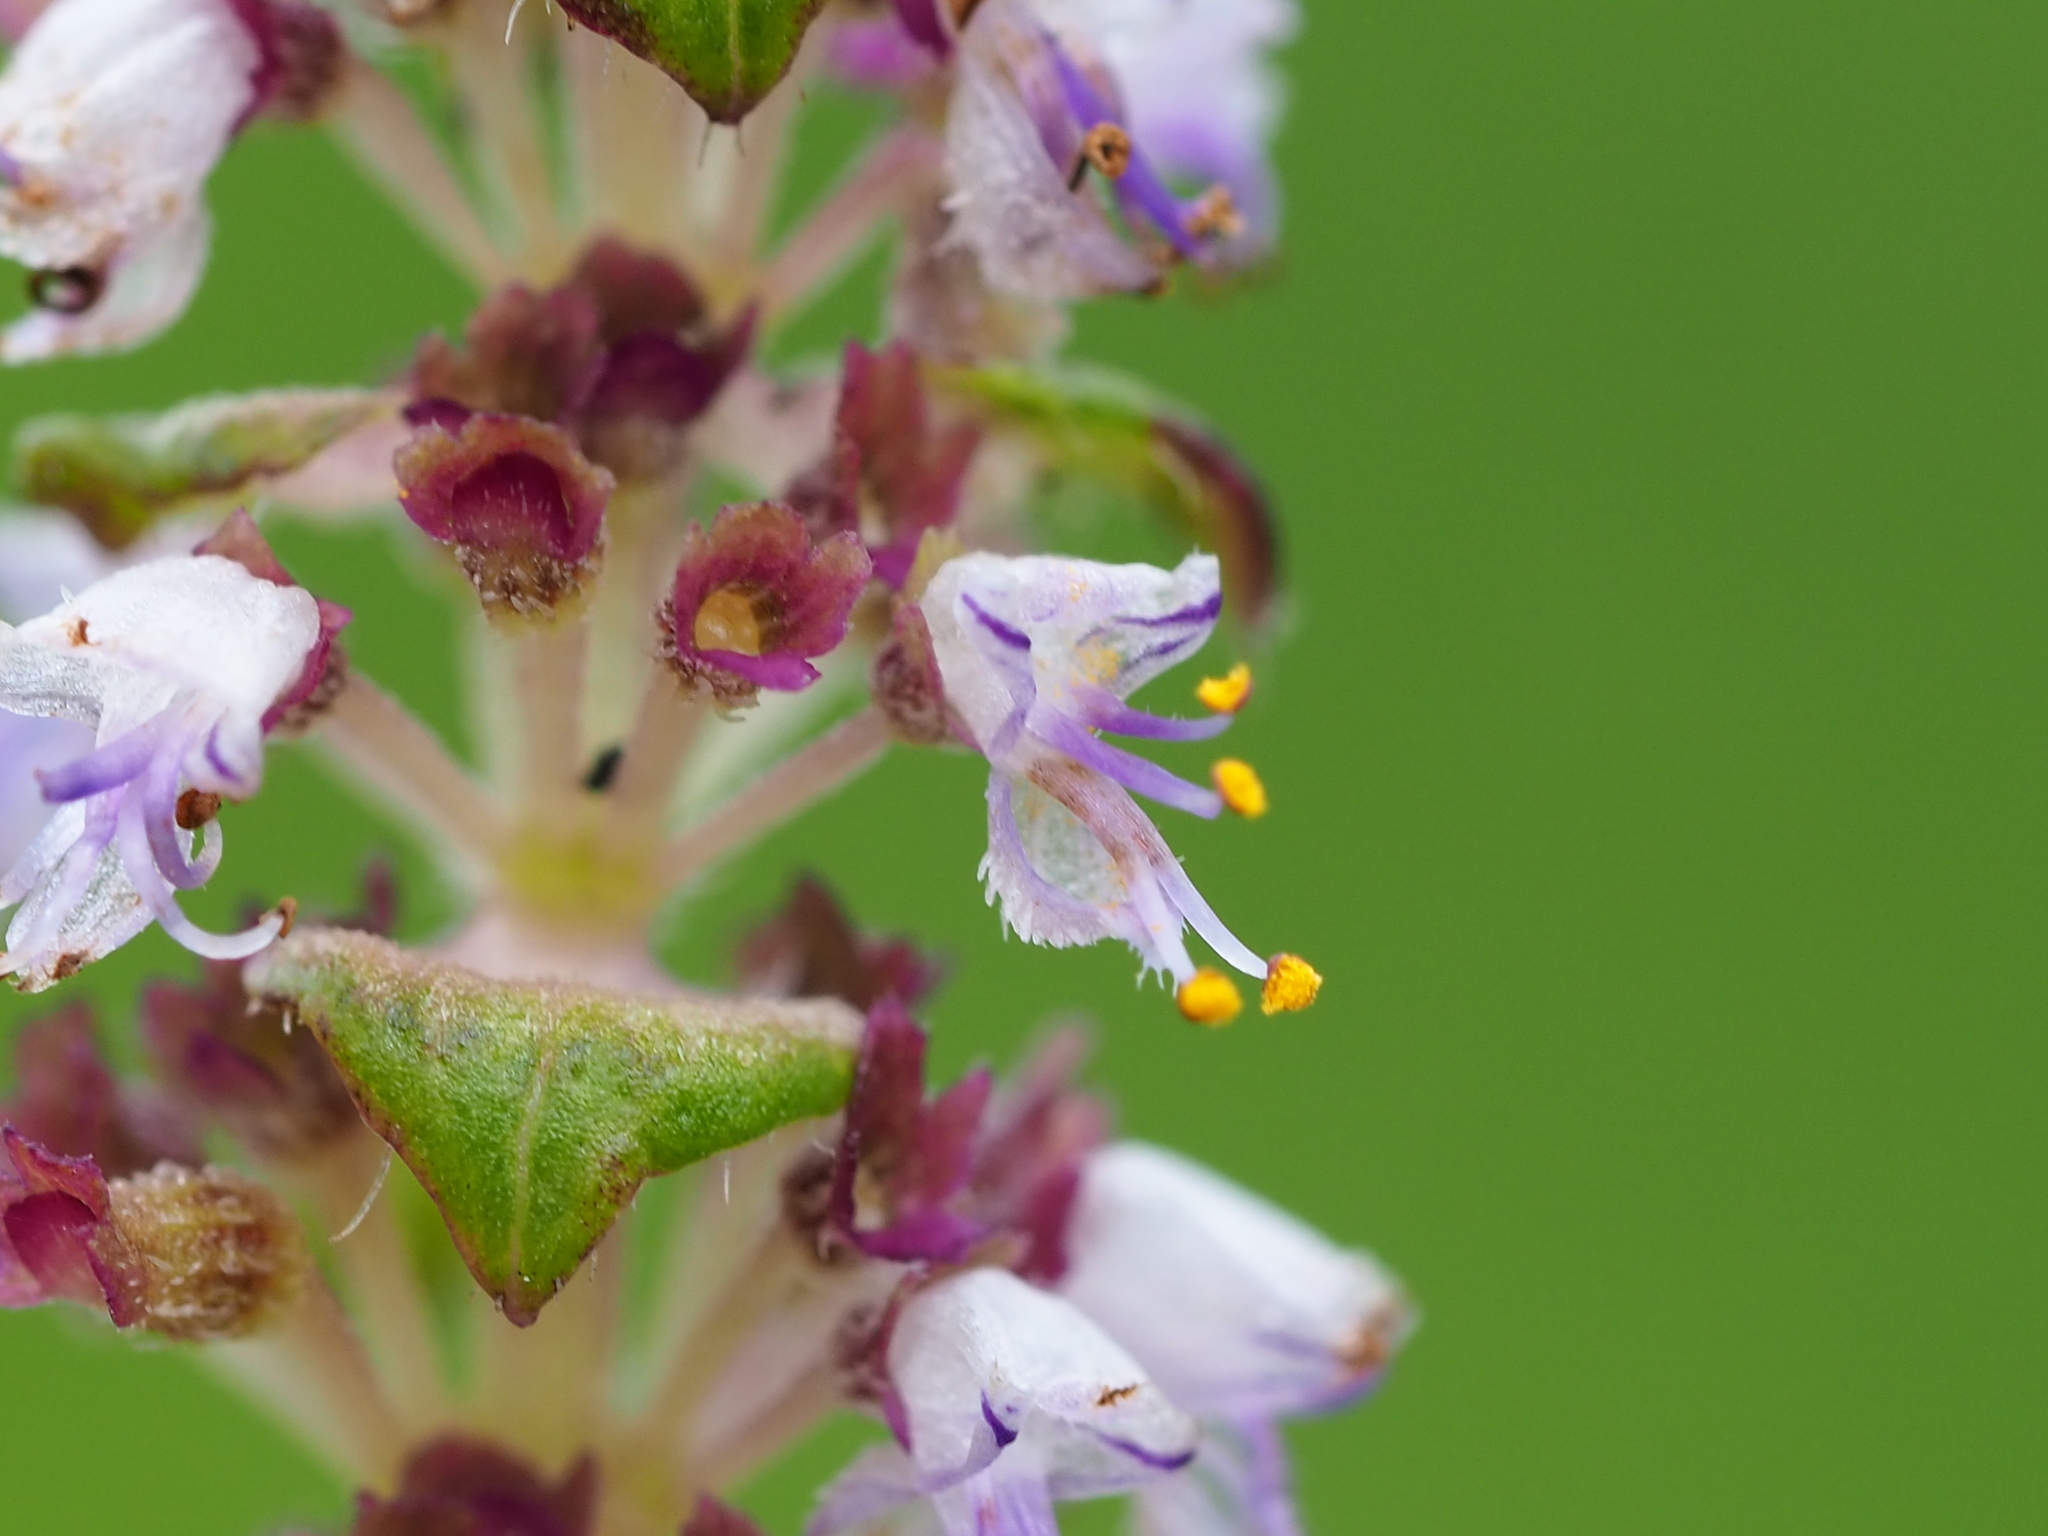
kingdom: Plantae
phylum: Tracheophyta
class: Magnoliopsida
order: Lamiales
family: Lamiaceae
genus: Platostoma
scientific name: Platostoma palustre
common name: Black cincau
